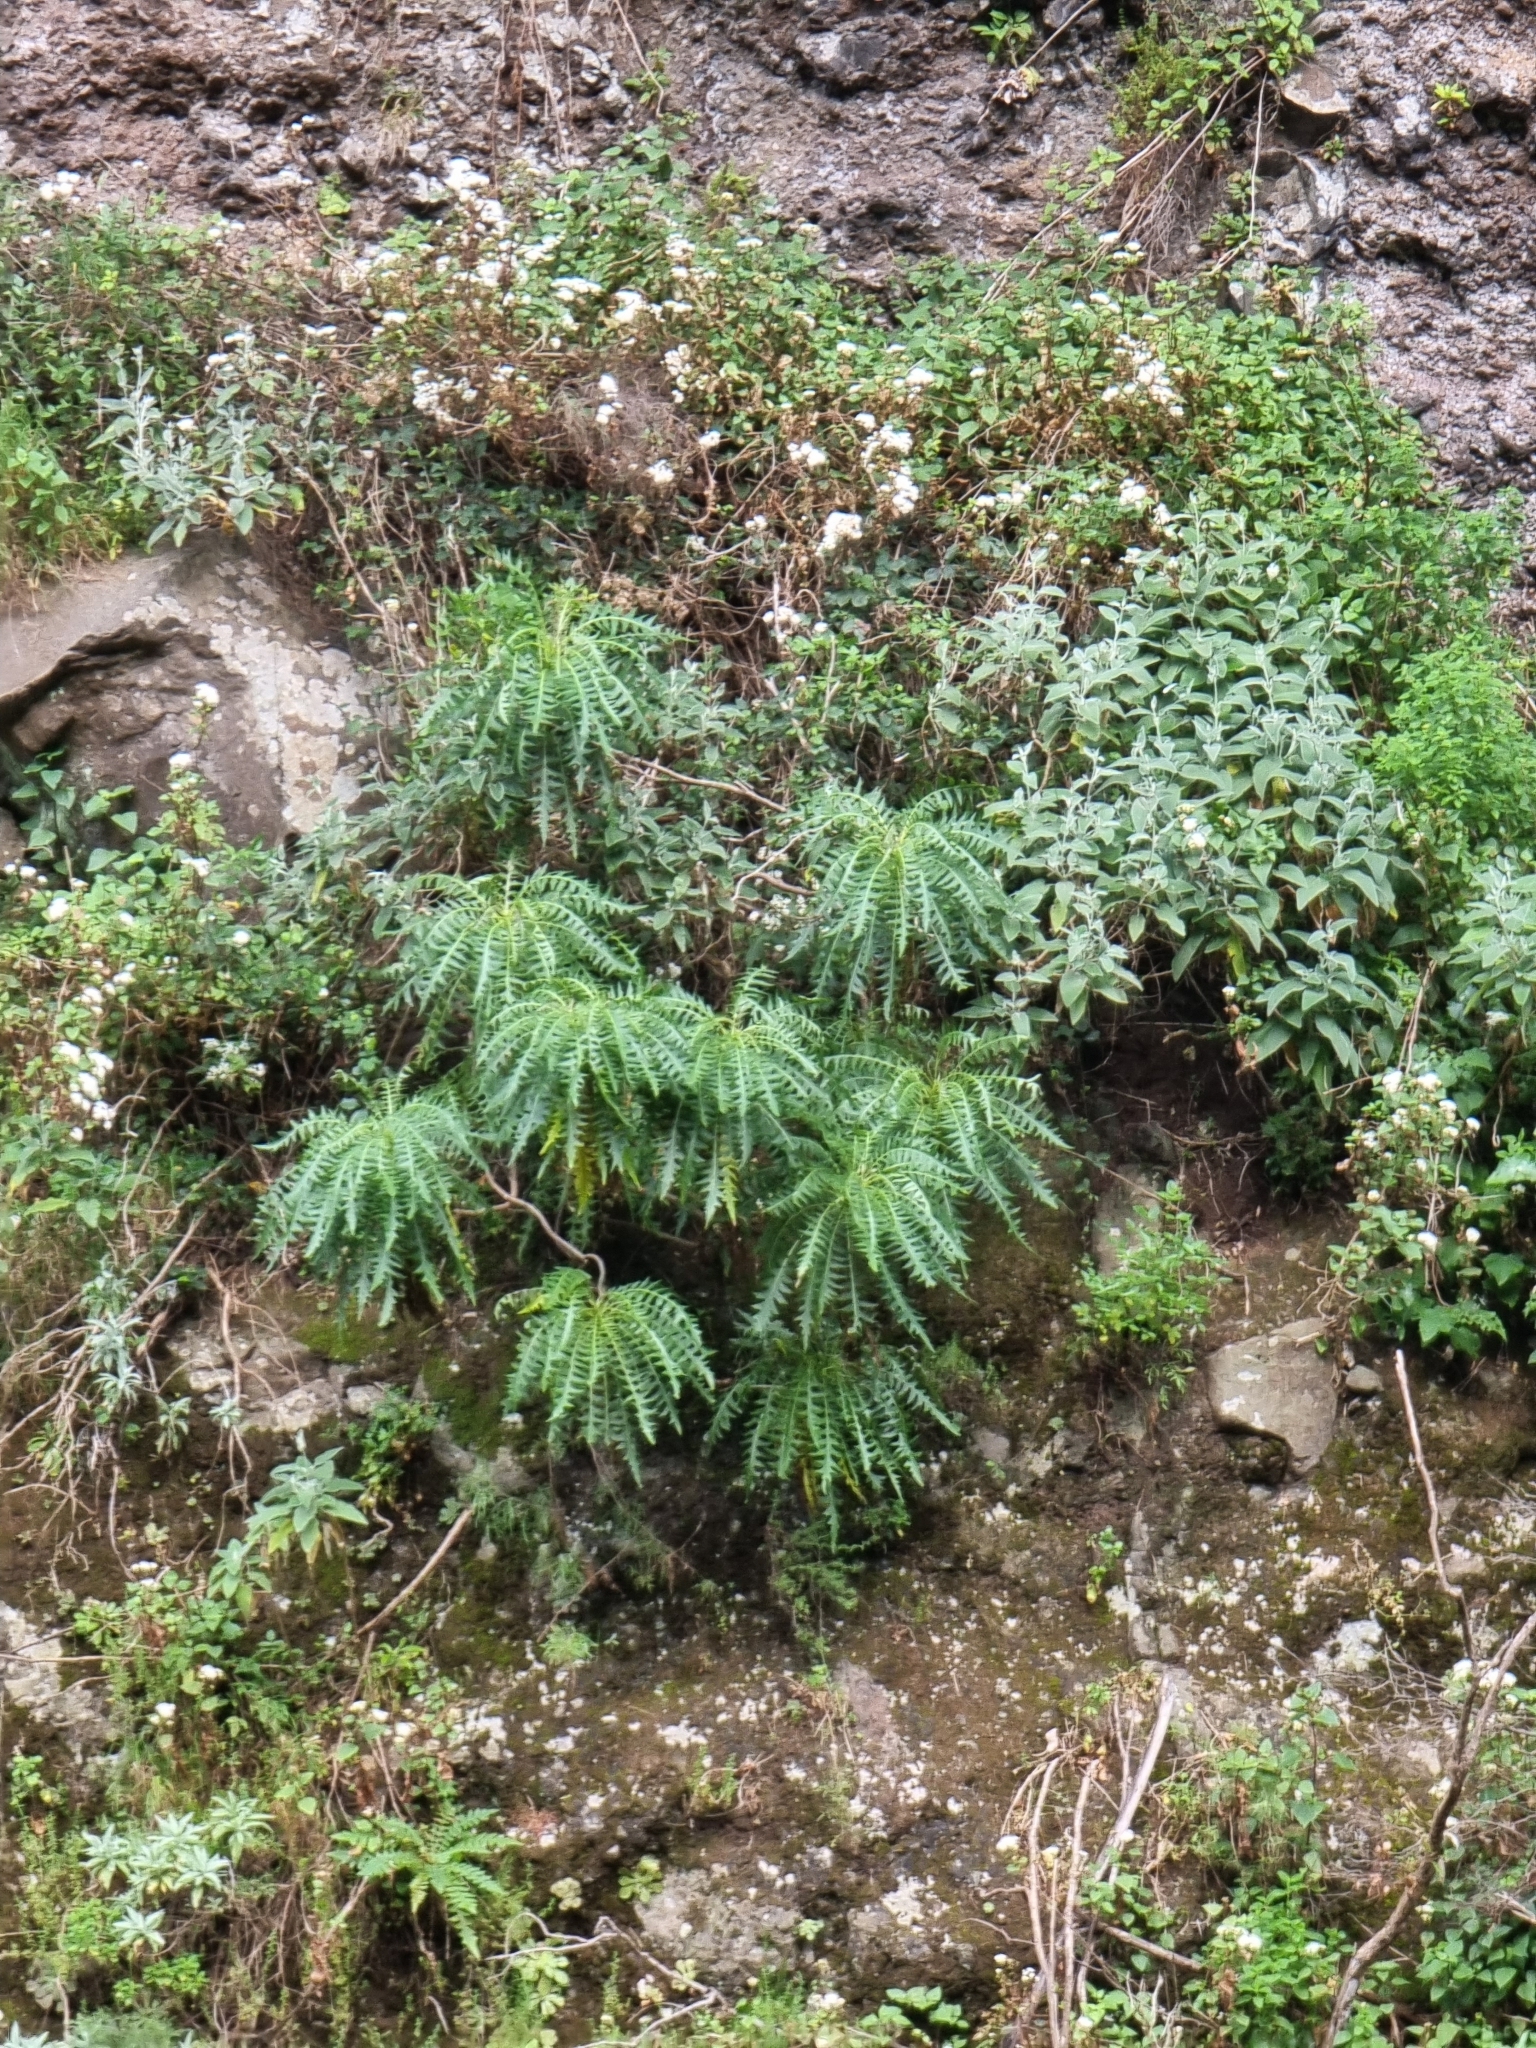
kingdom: Plantae
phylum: Tracheophyta
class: Magnoliopsida
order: Asterales
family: Asteraceae
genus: Sonchus
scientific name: Sonchus pinnatus
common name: Wing-leaved sow-thistle
